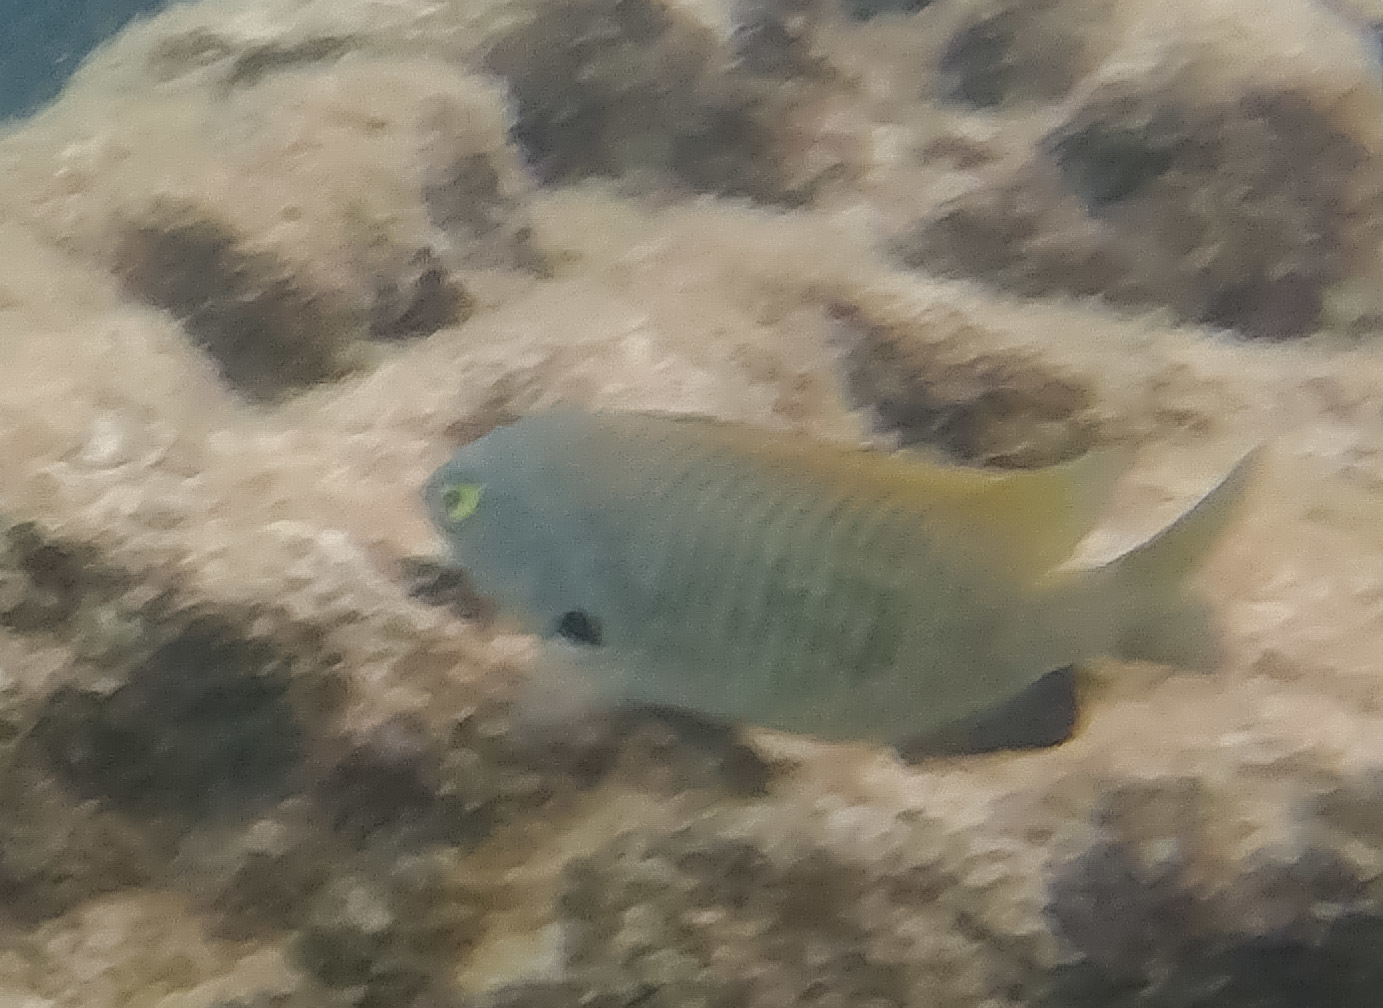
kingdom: Animalia
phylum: Chordata
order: Perciformes
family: Pomacentridae
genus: Stegastes
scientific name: Stegastes fasciolatus
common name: Pacific gregory
